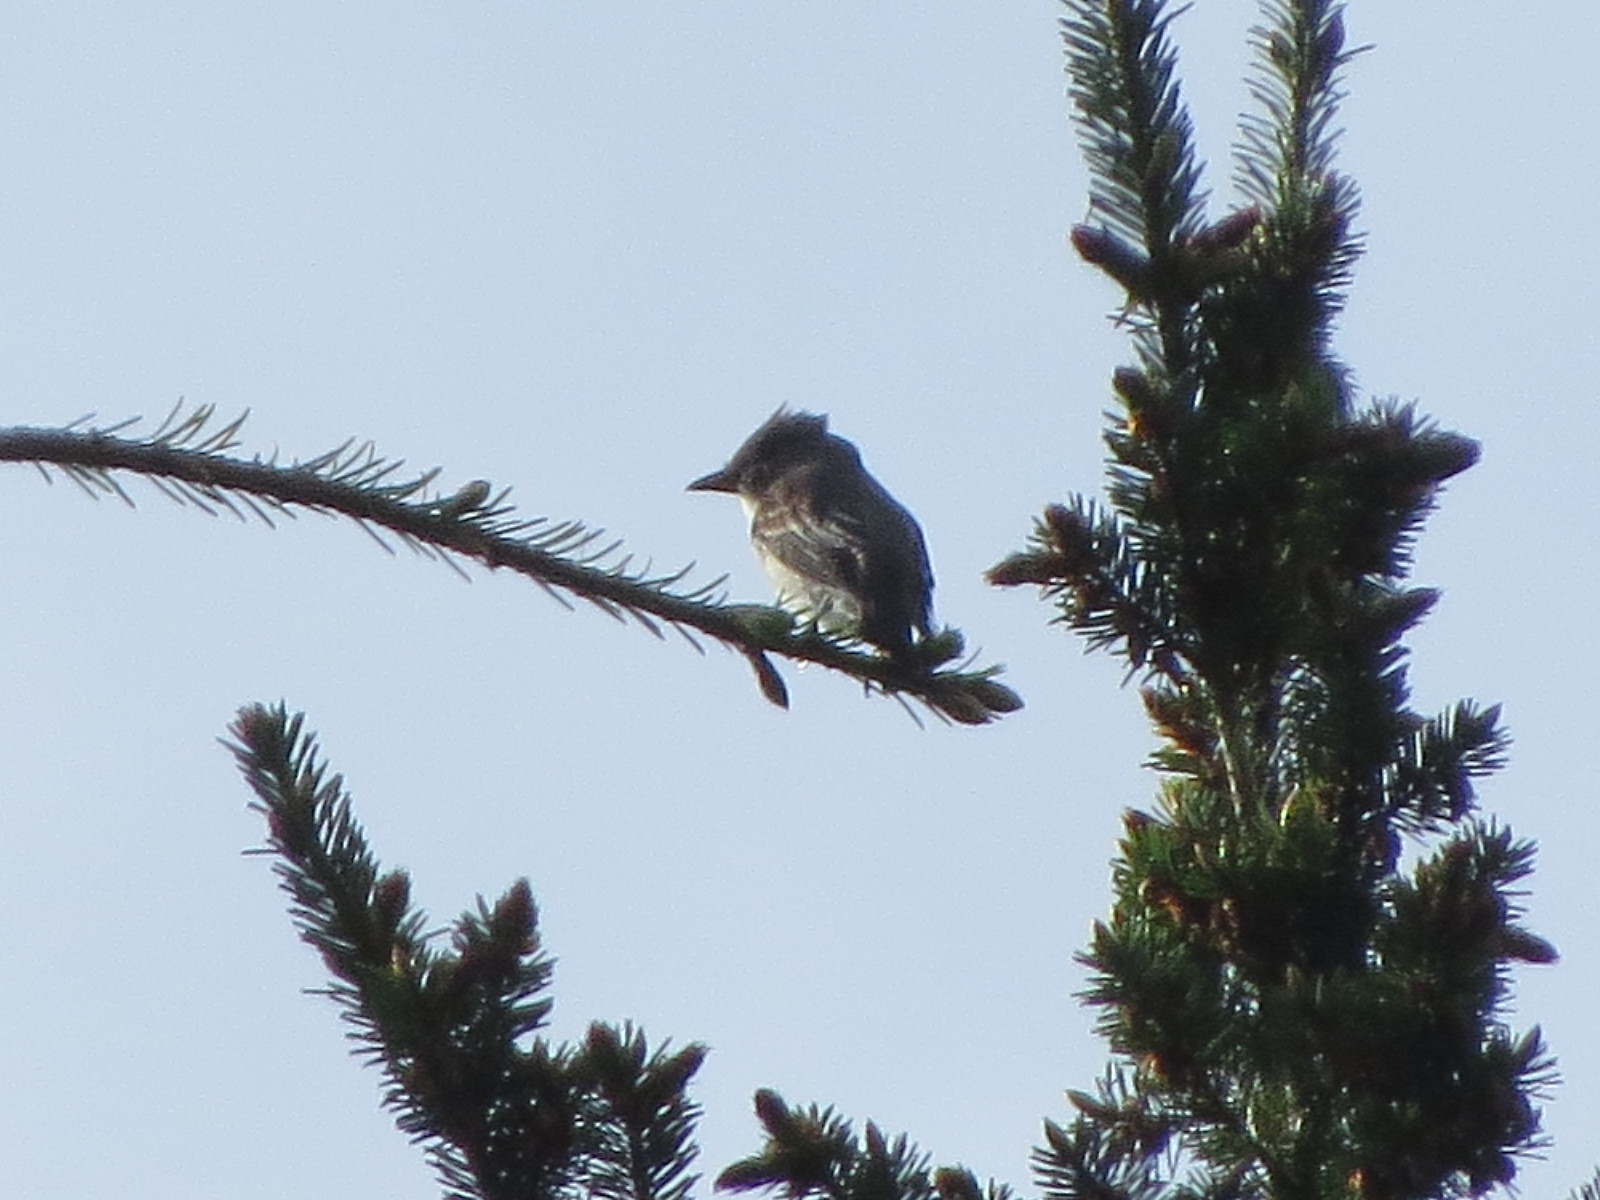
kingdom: Animalia
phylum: Chordata
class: Aves
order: Passeriformes
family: Tyrannidae
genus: Contopus
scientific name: Contopus cooperi
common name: Olive-sided flycatcher
